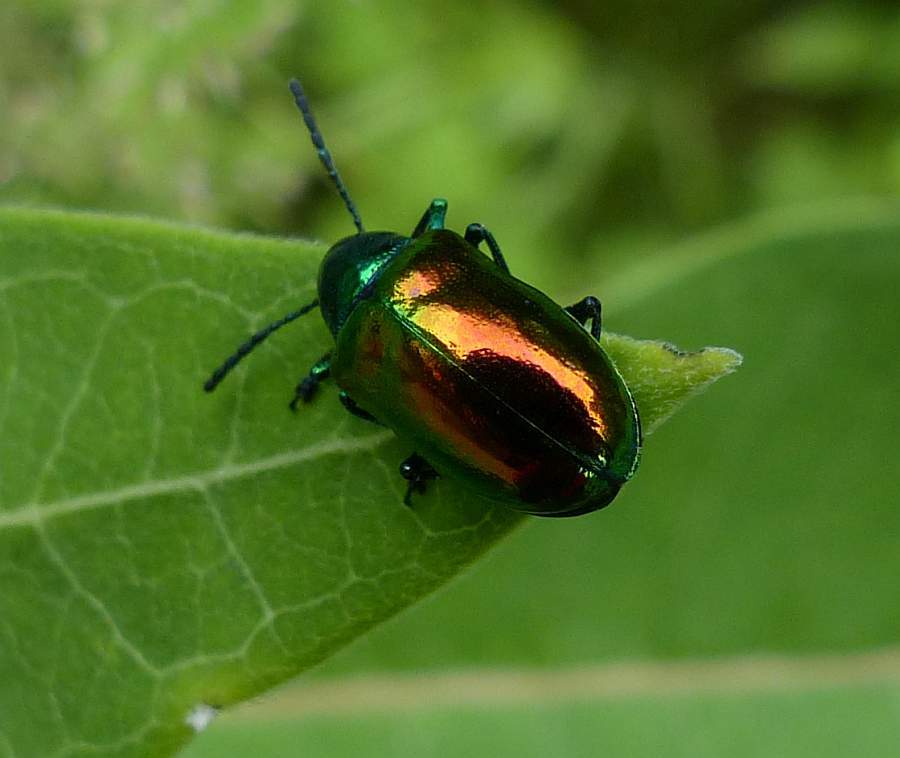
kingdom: Animalia
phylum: Arthropoda
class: Insecta
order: Coleoptera
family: Chrysomelidae
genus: Chrysochus
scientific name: Chrysochus auratus
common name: Dogbane leaf beetle
